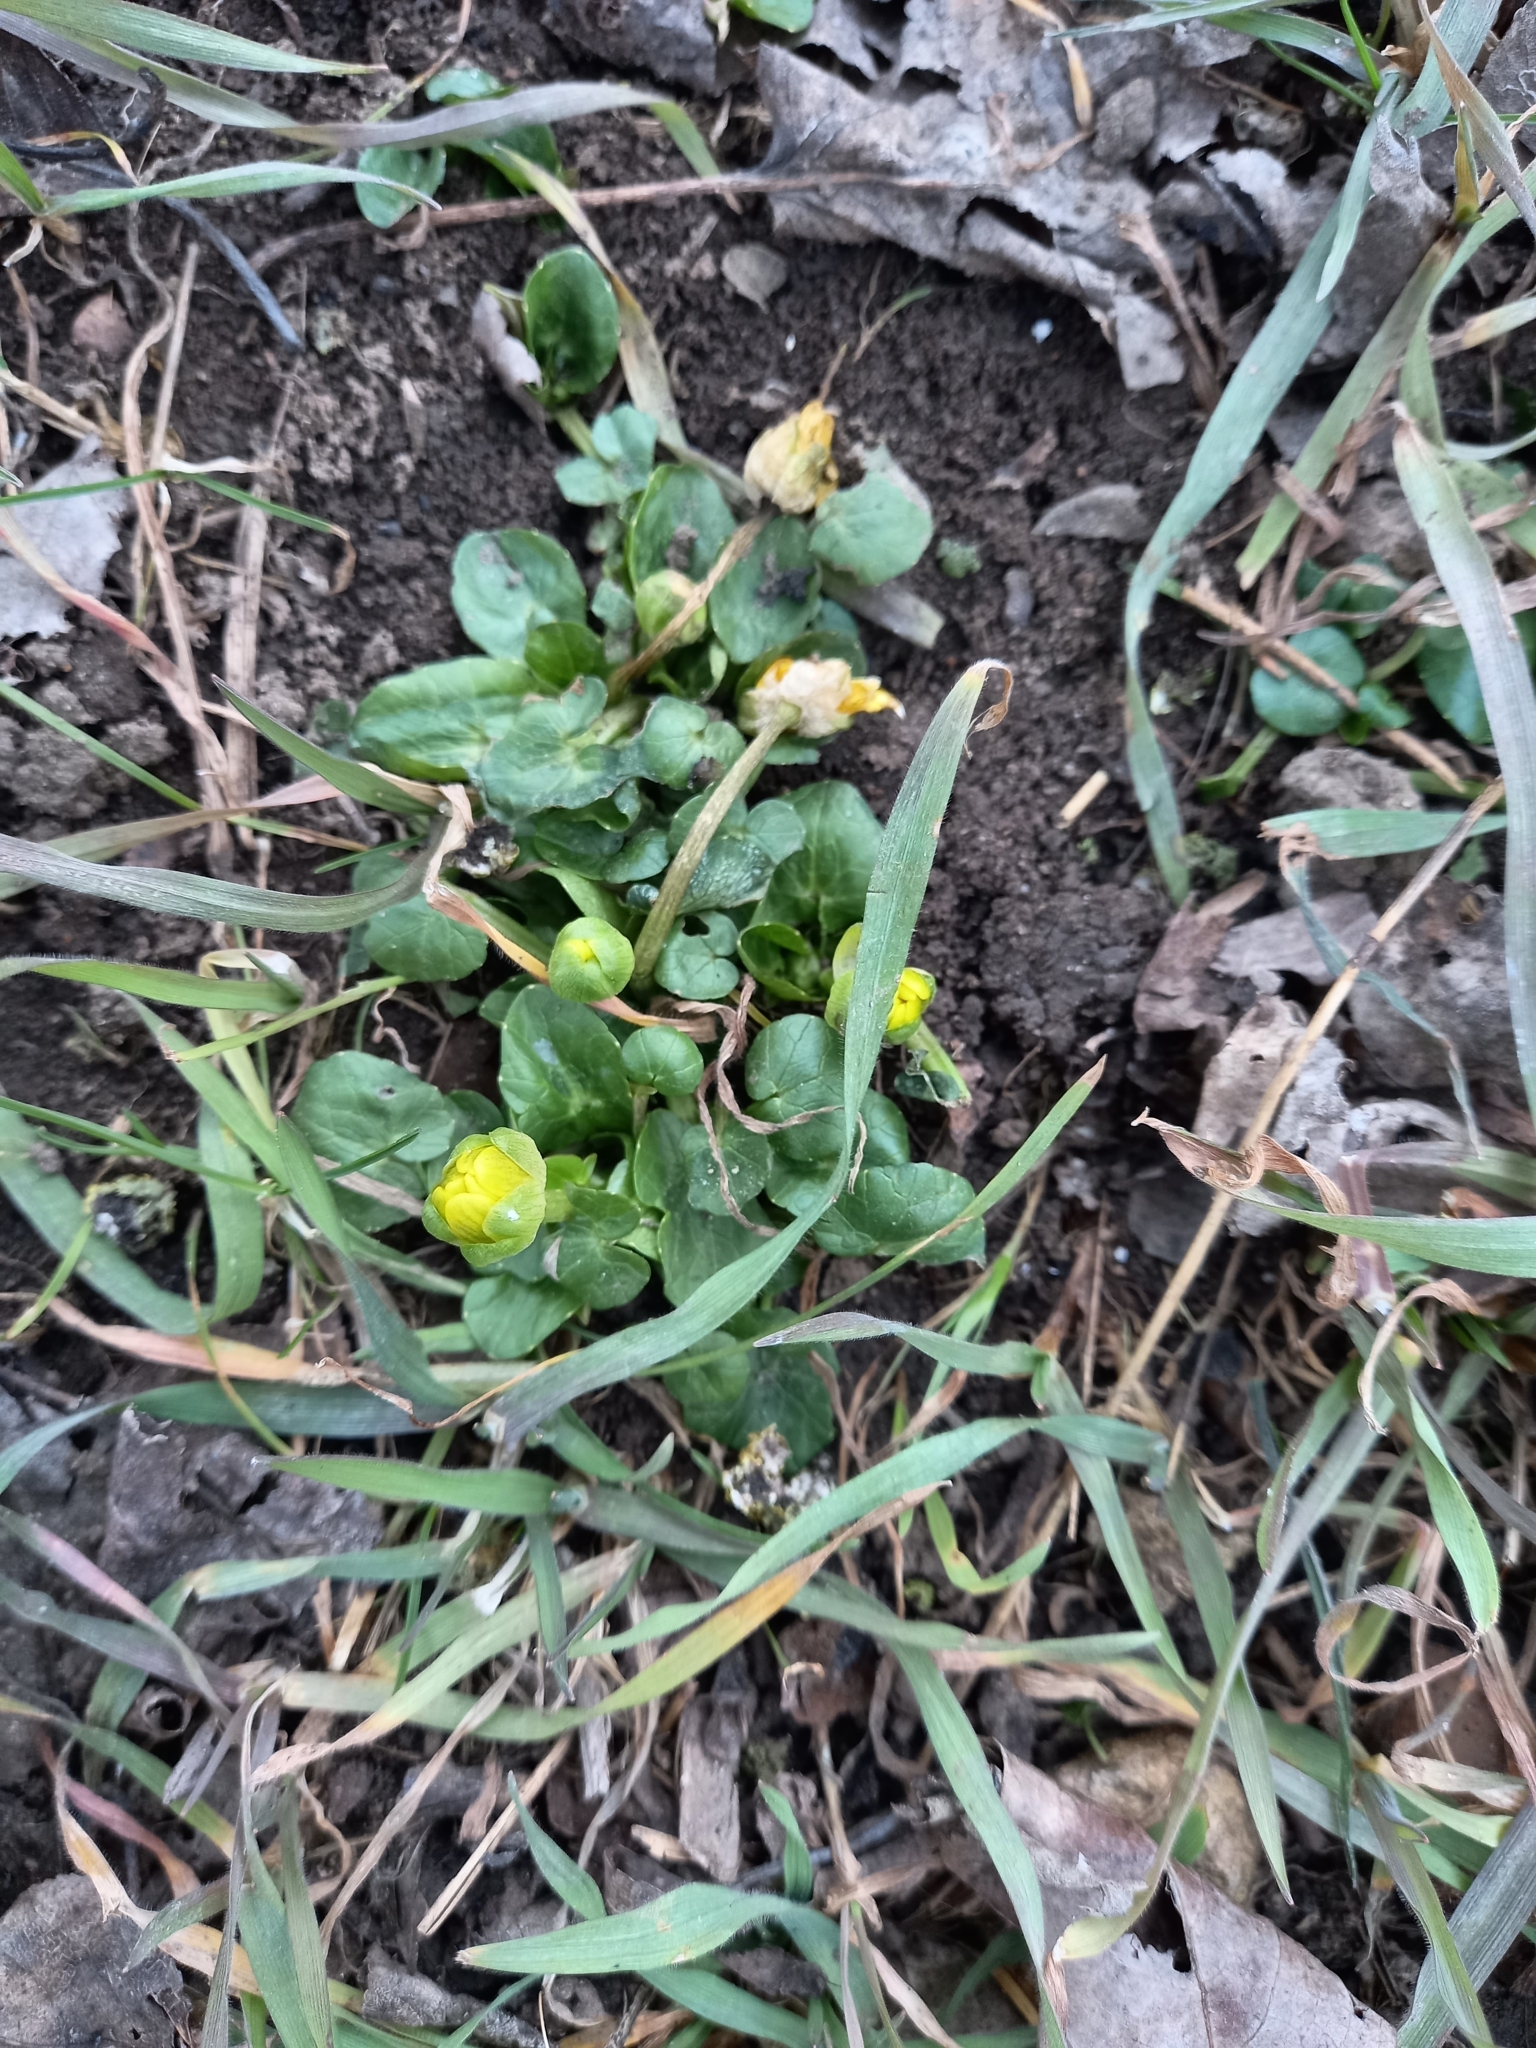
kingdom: Plantae
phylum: Tracheophyta
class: Magnoliopsida
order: Ranunculales
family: Ranunculaceae
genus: Ficaria
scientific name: Ficaria verna
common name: Lesser celandine
